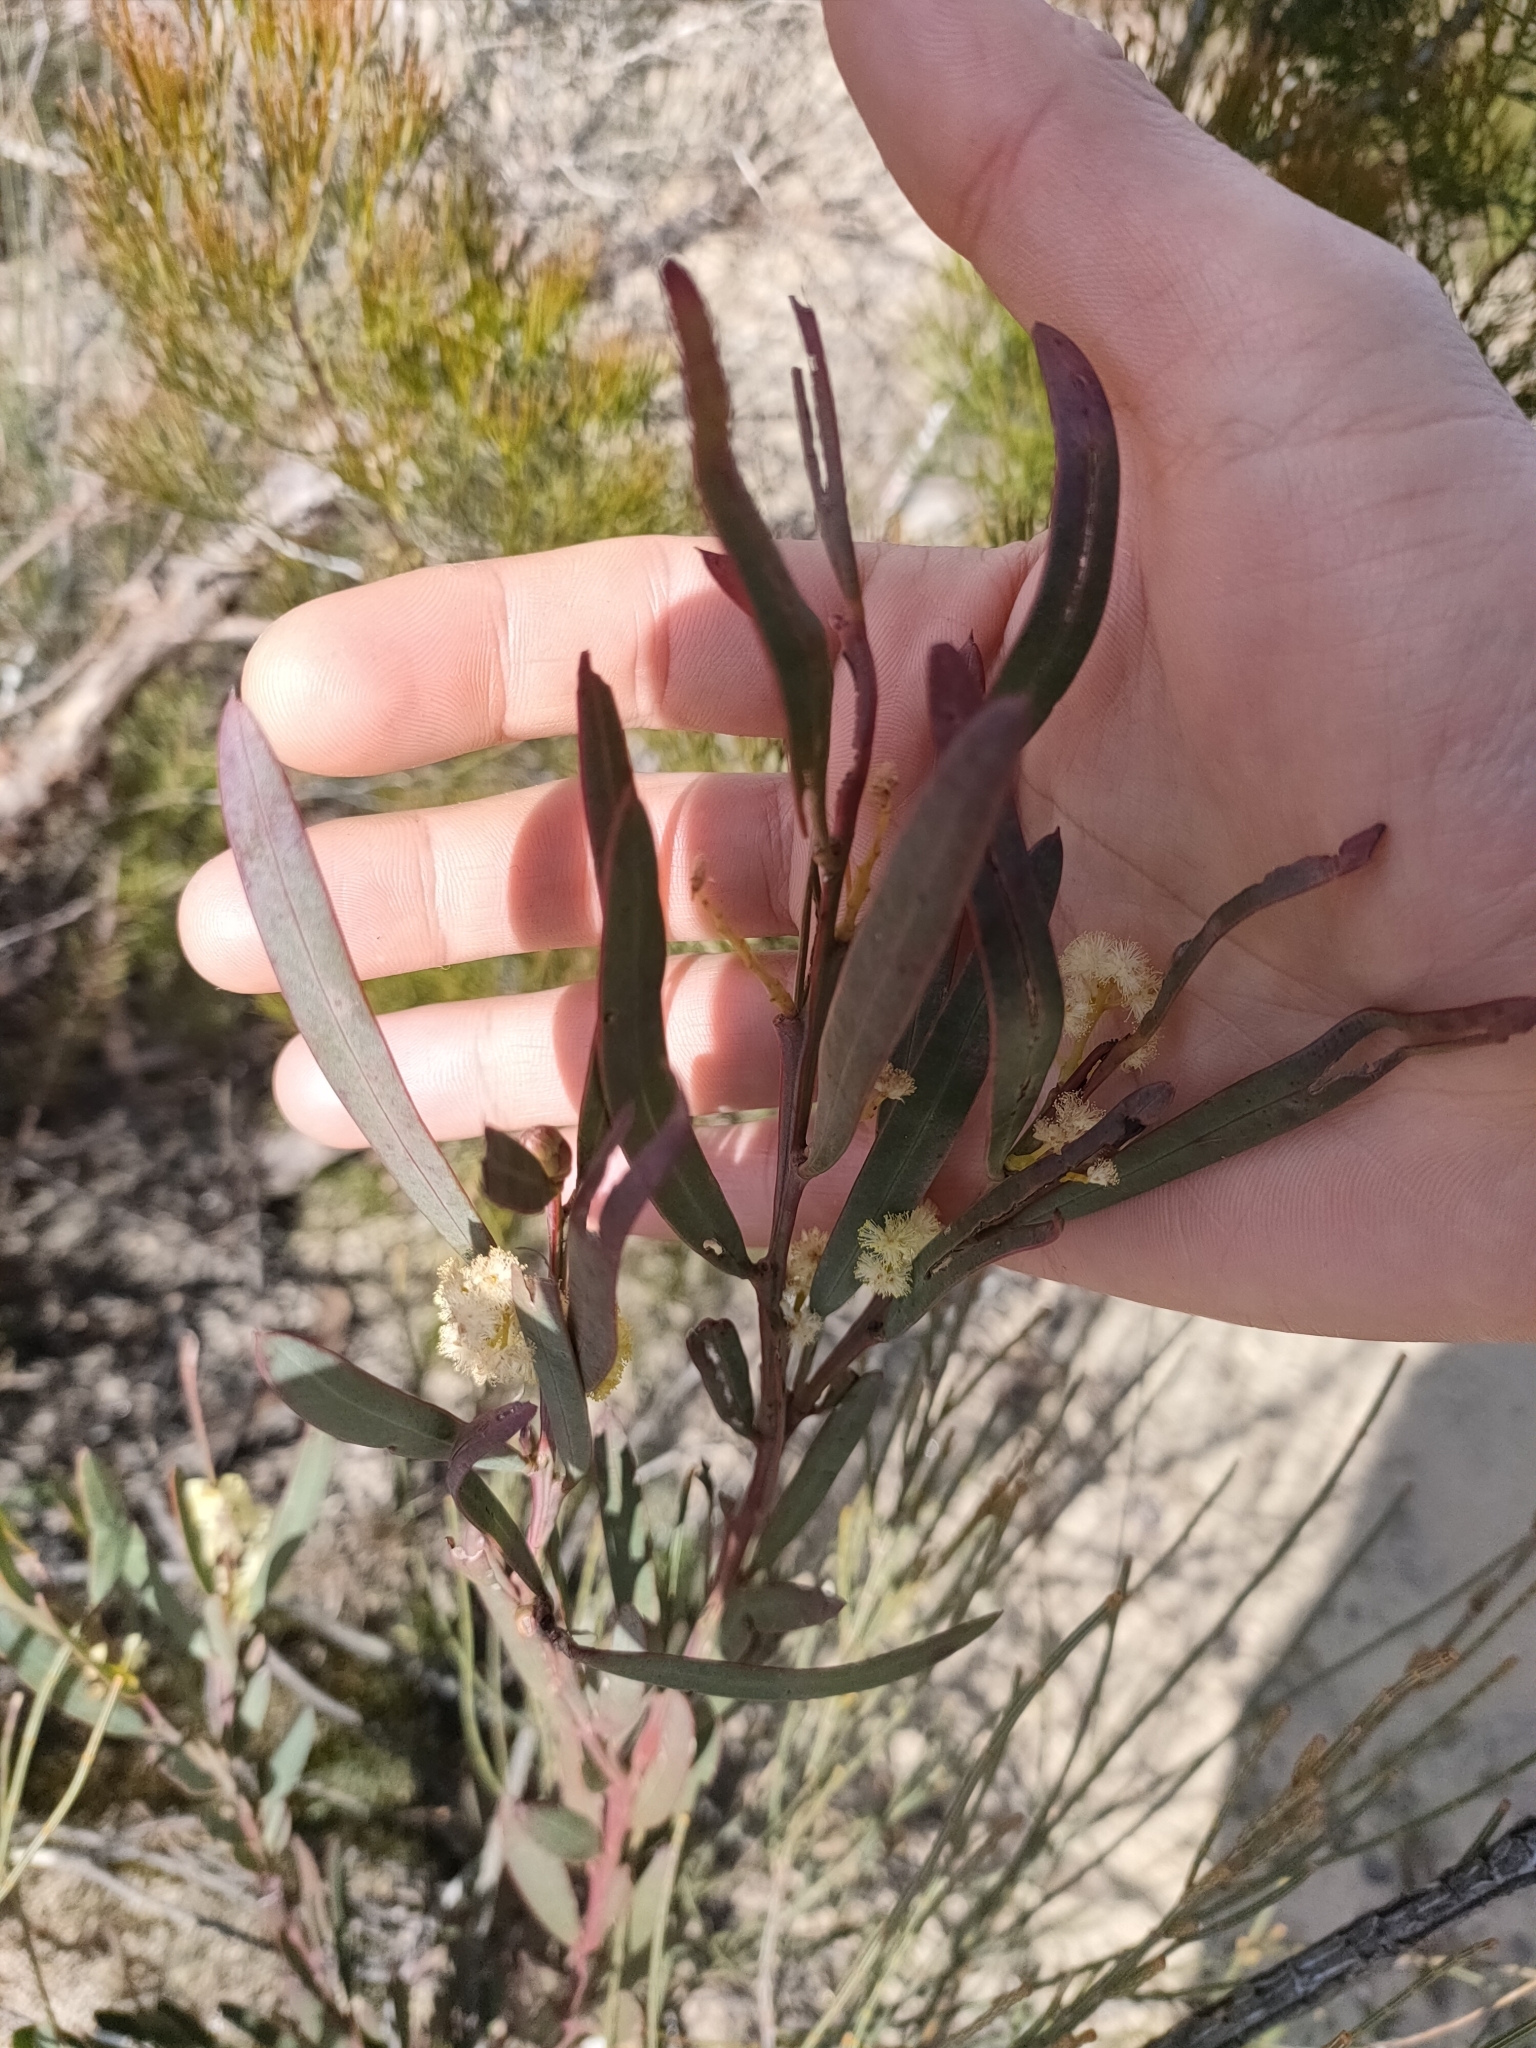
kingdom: Plantae
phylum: Tracheophyta
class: Magnoliopsida
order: Fabales
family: Fabaceae
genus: Acacia
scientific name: Acacia suaveolens
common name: Sweet acacia
